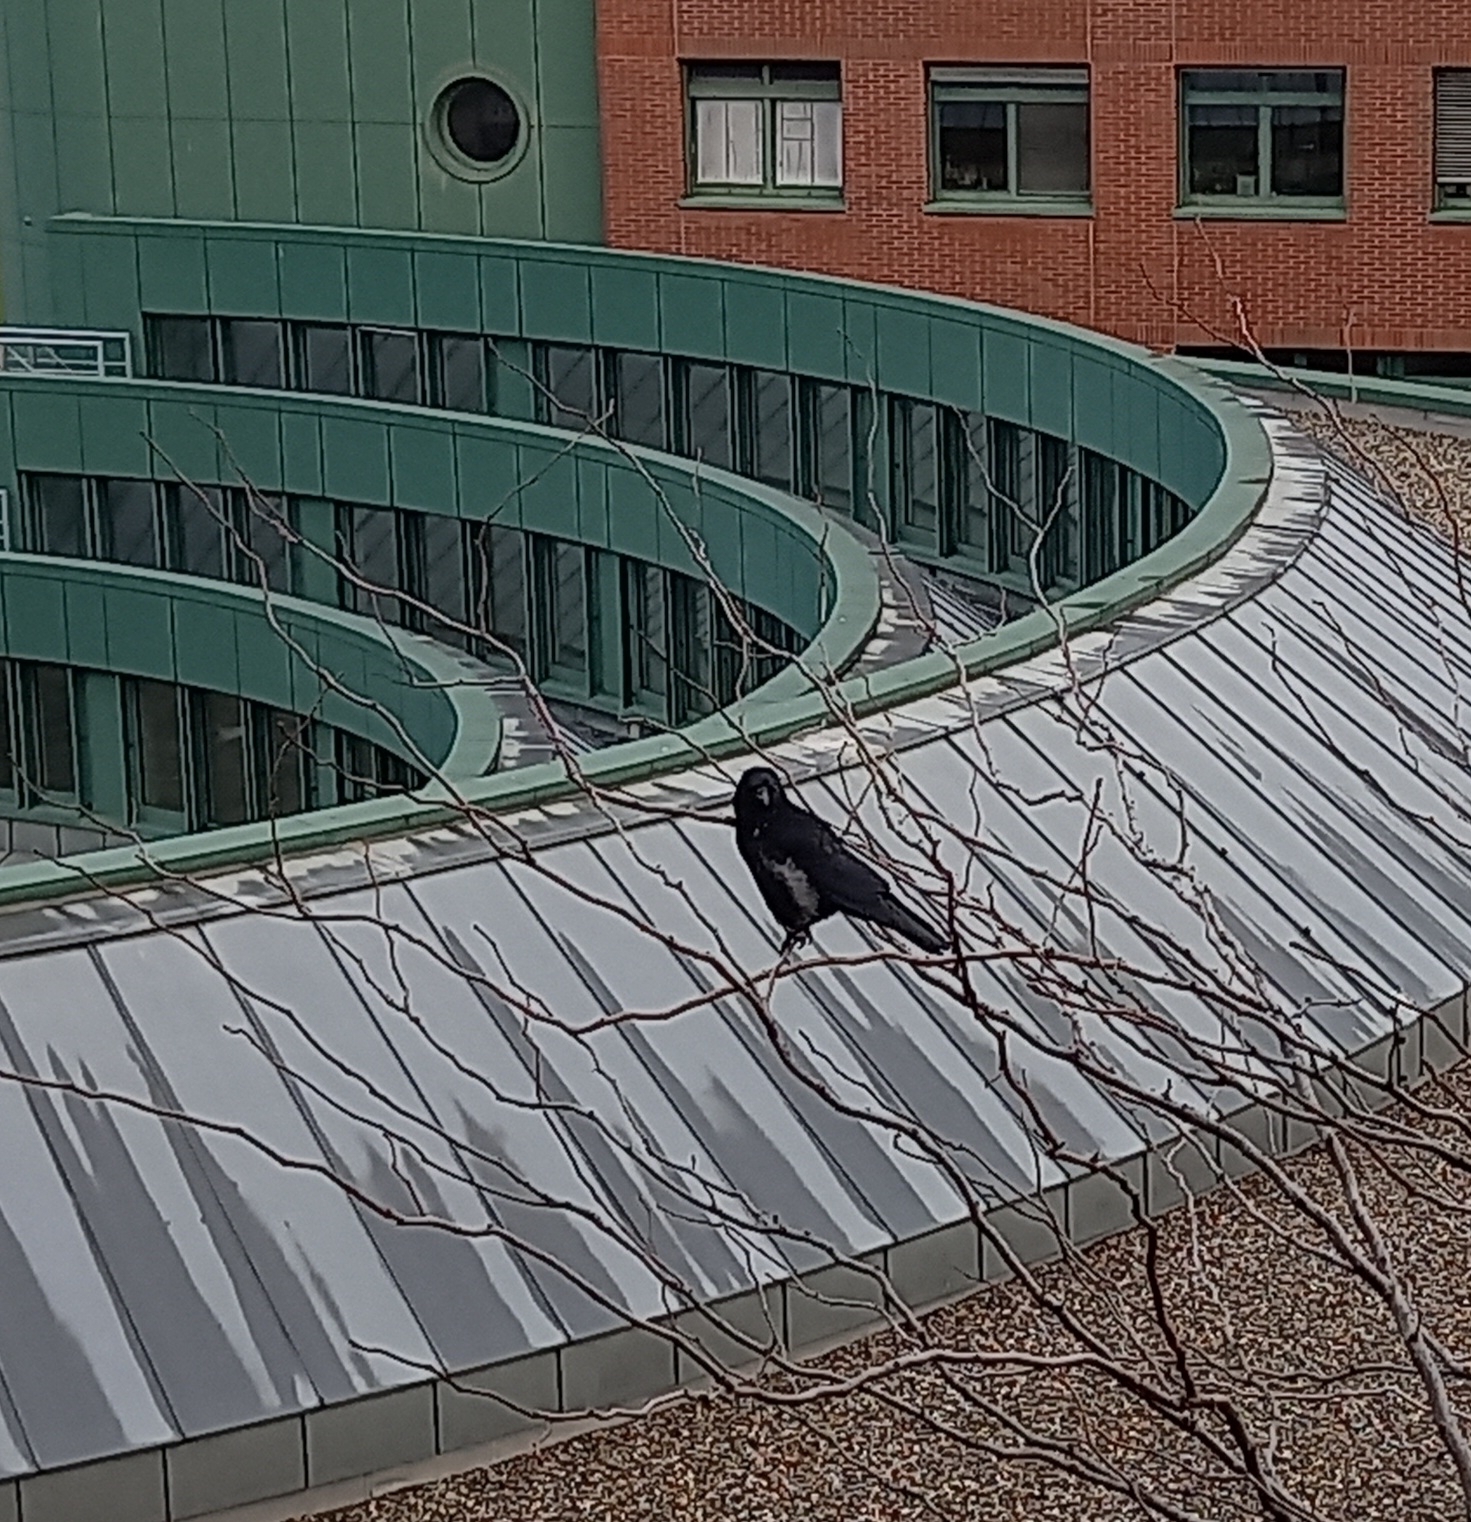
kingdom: Animalia
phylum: Chordata
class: Aves
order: Passeriformes
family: Corvidae
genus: Corvus
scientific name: Corvus
